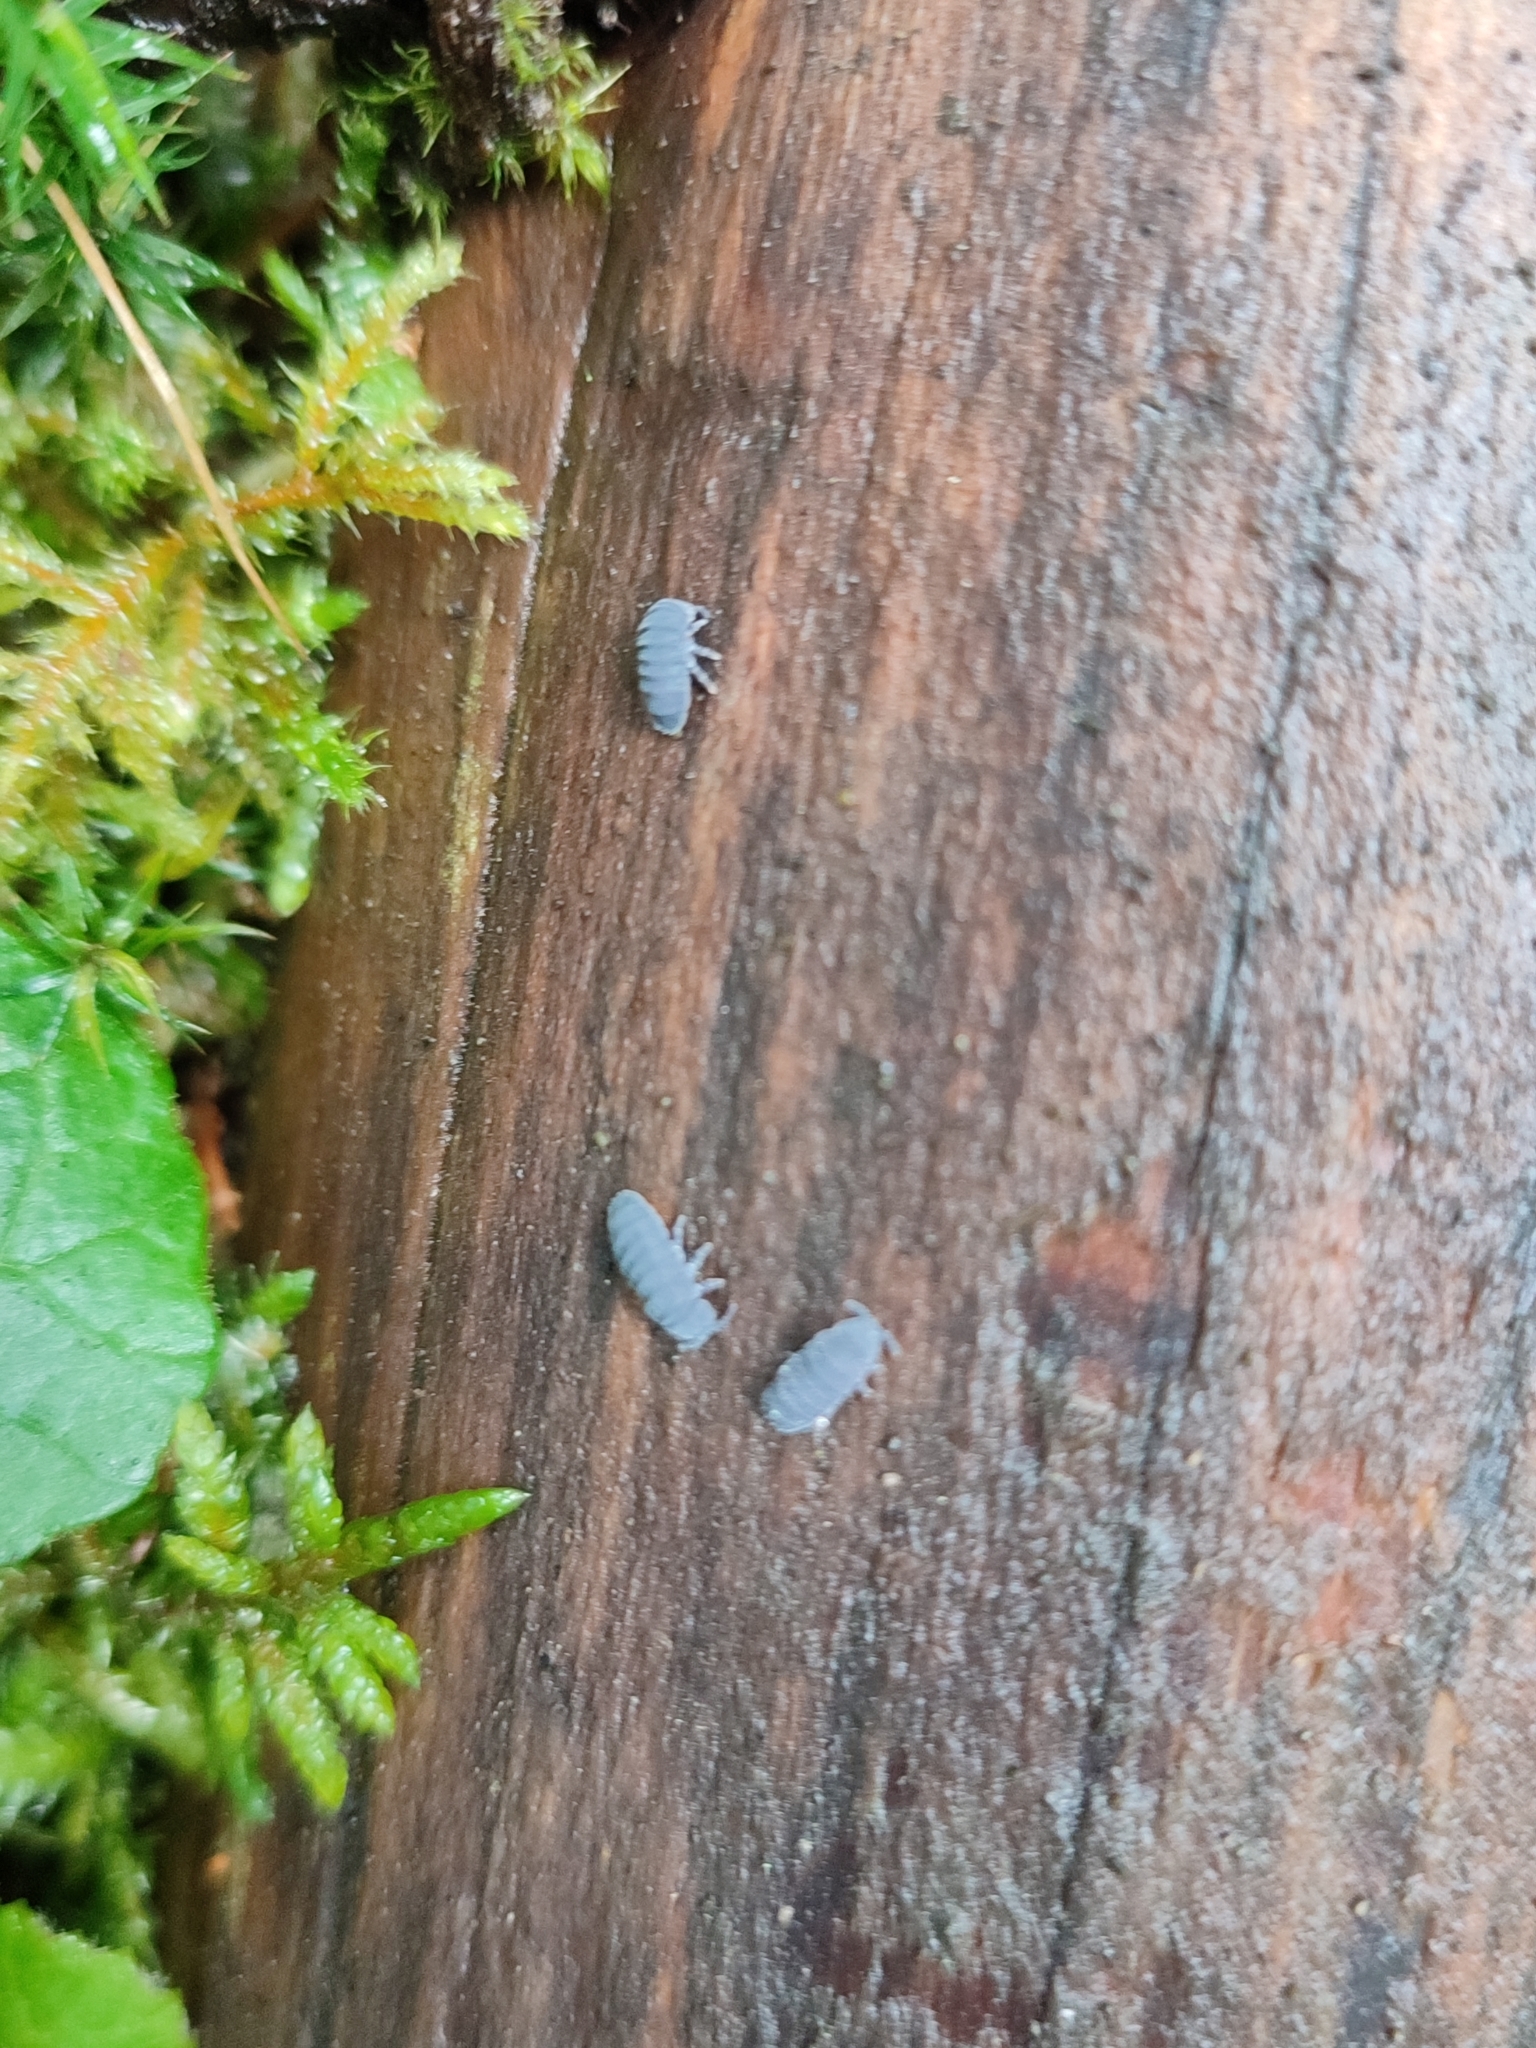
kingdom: Animalia
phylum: Arthropoda
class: Collembola
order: Poduromorpha
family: Onychiuridae
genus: Tetrodontophora
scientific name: Tetrodontophora bielanensis
